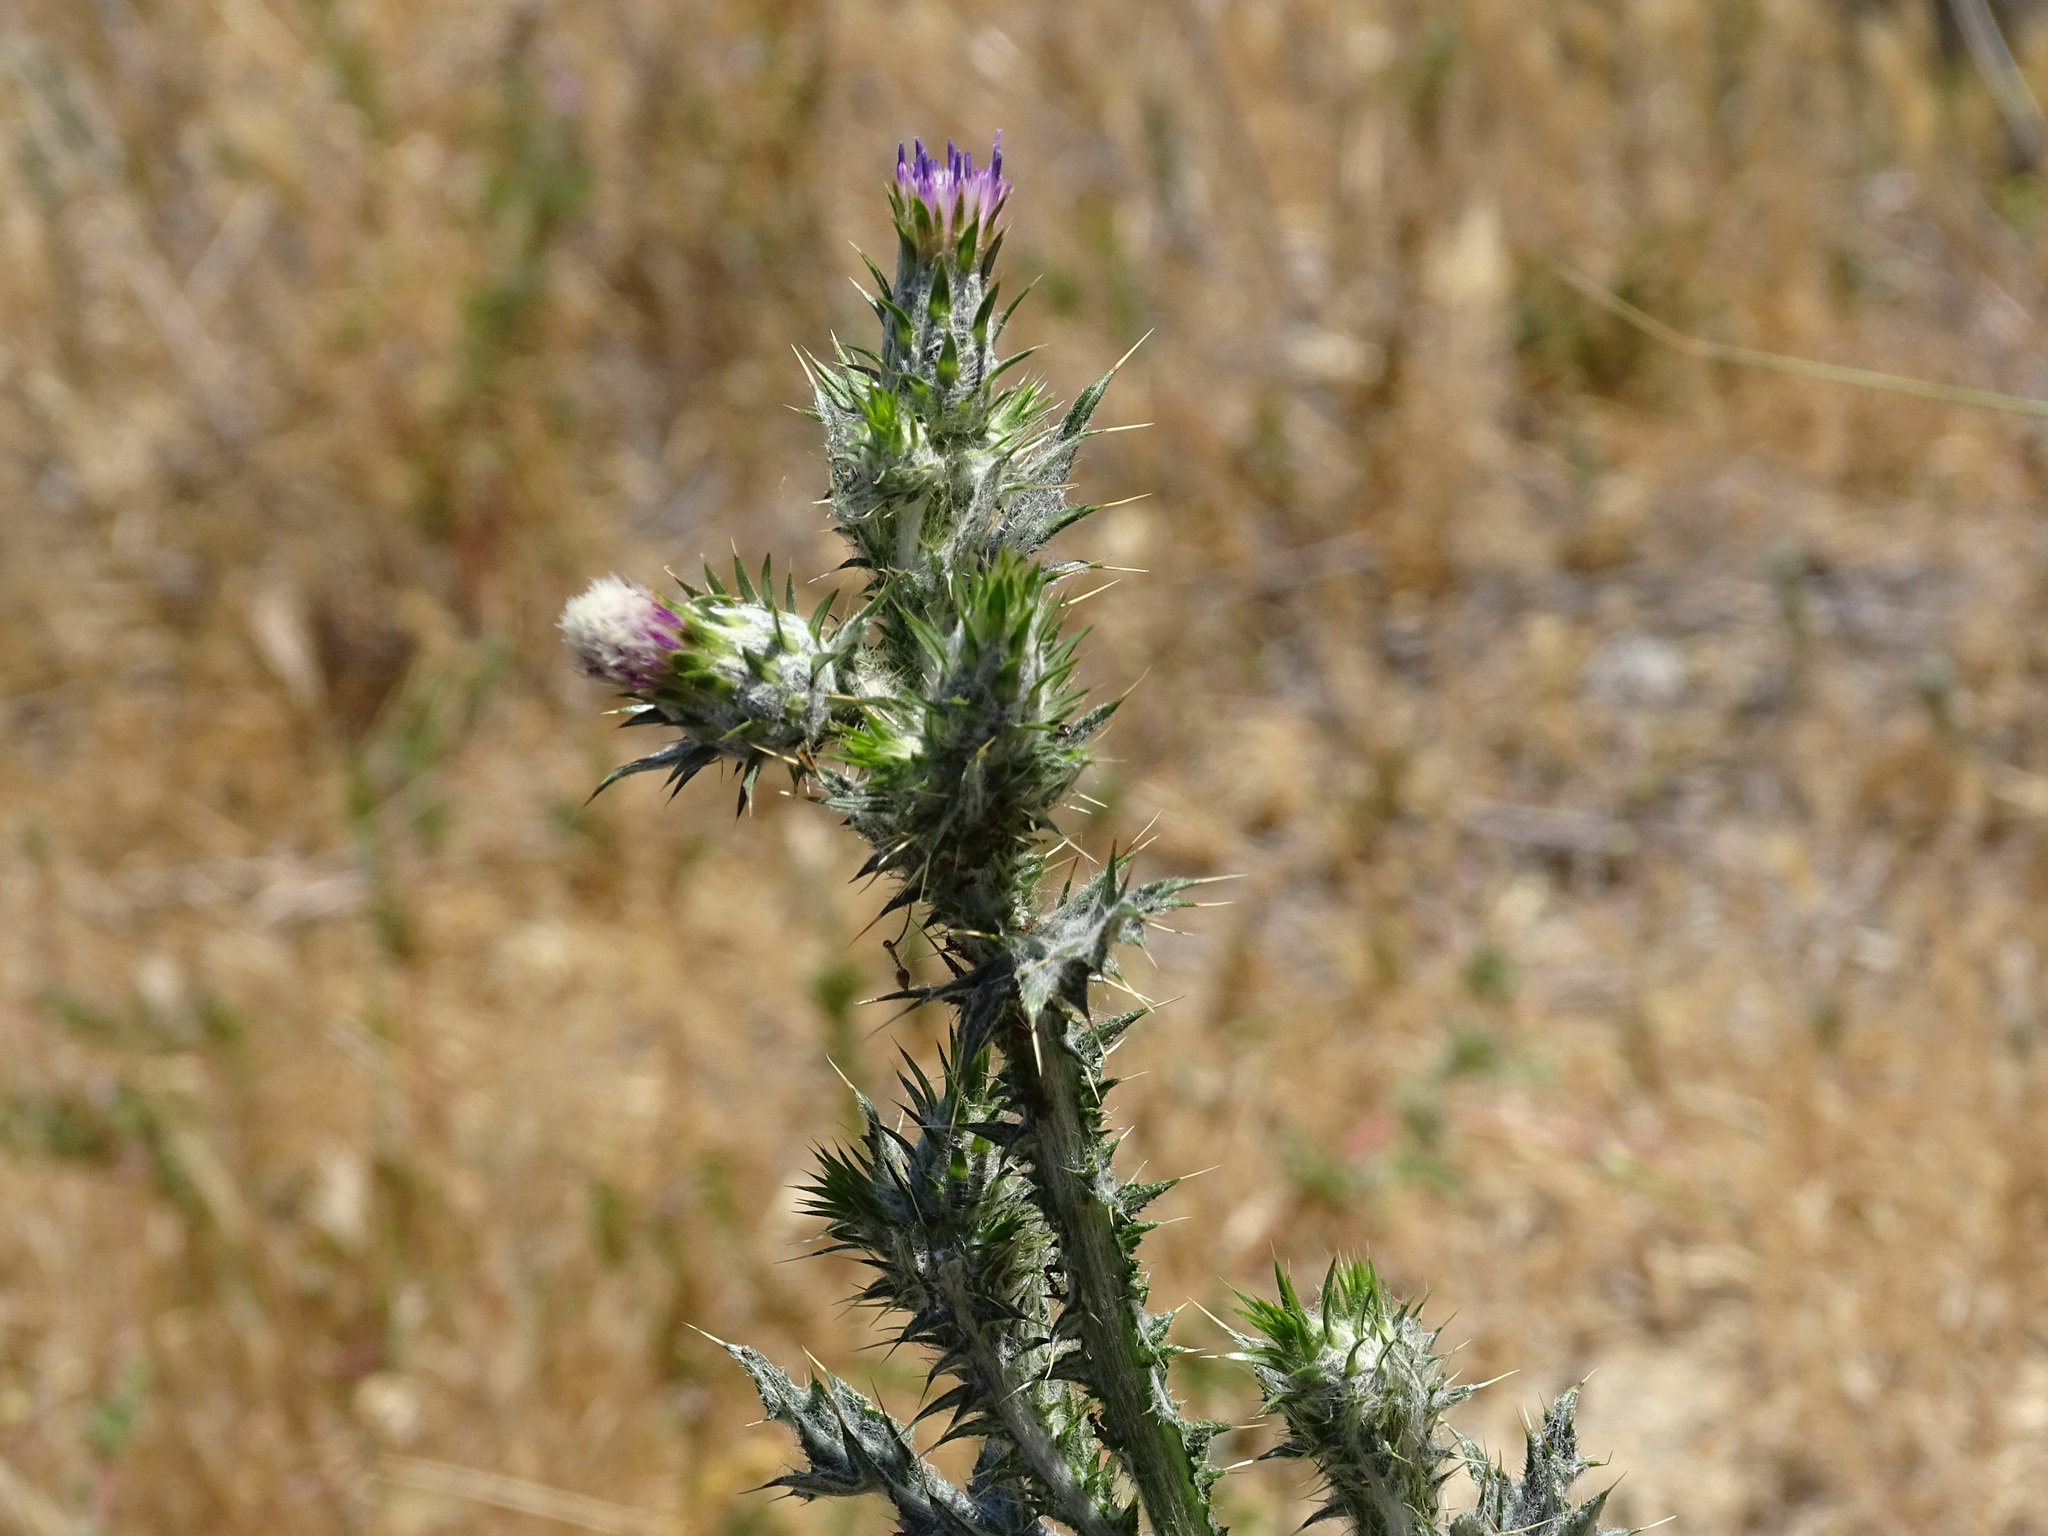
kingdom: Plantae
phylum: Tracheophyta
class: Magnoliopsida
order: Asterales
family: Asteraceae
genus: Carduus
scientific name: Carduus pycnocephalus
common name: Plymouth thistle
